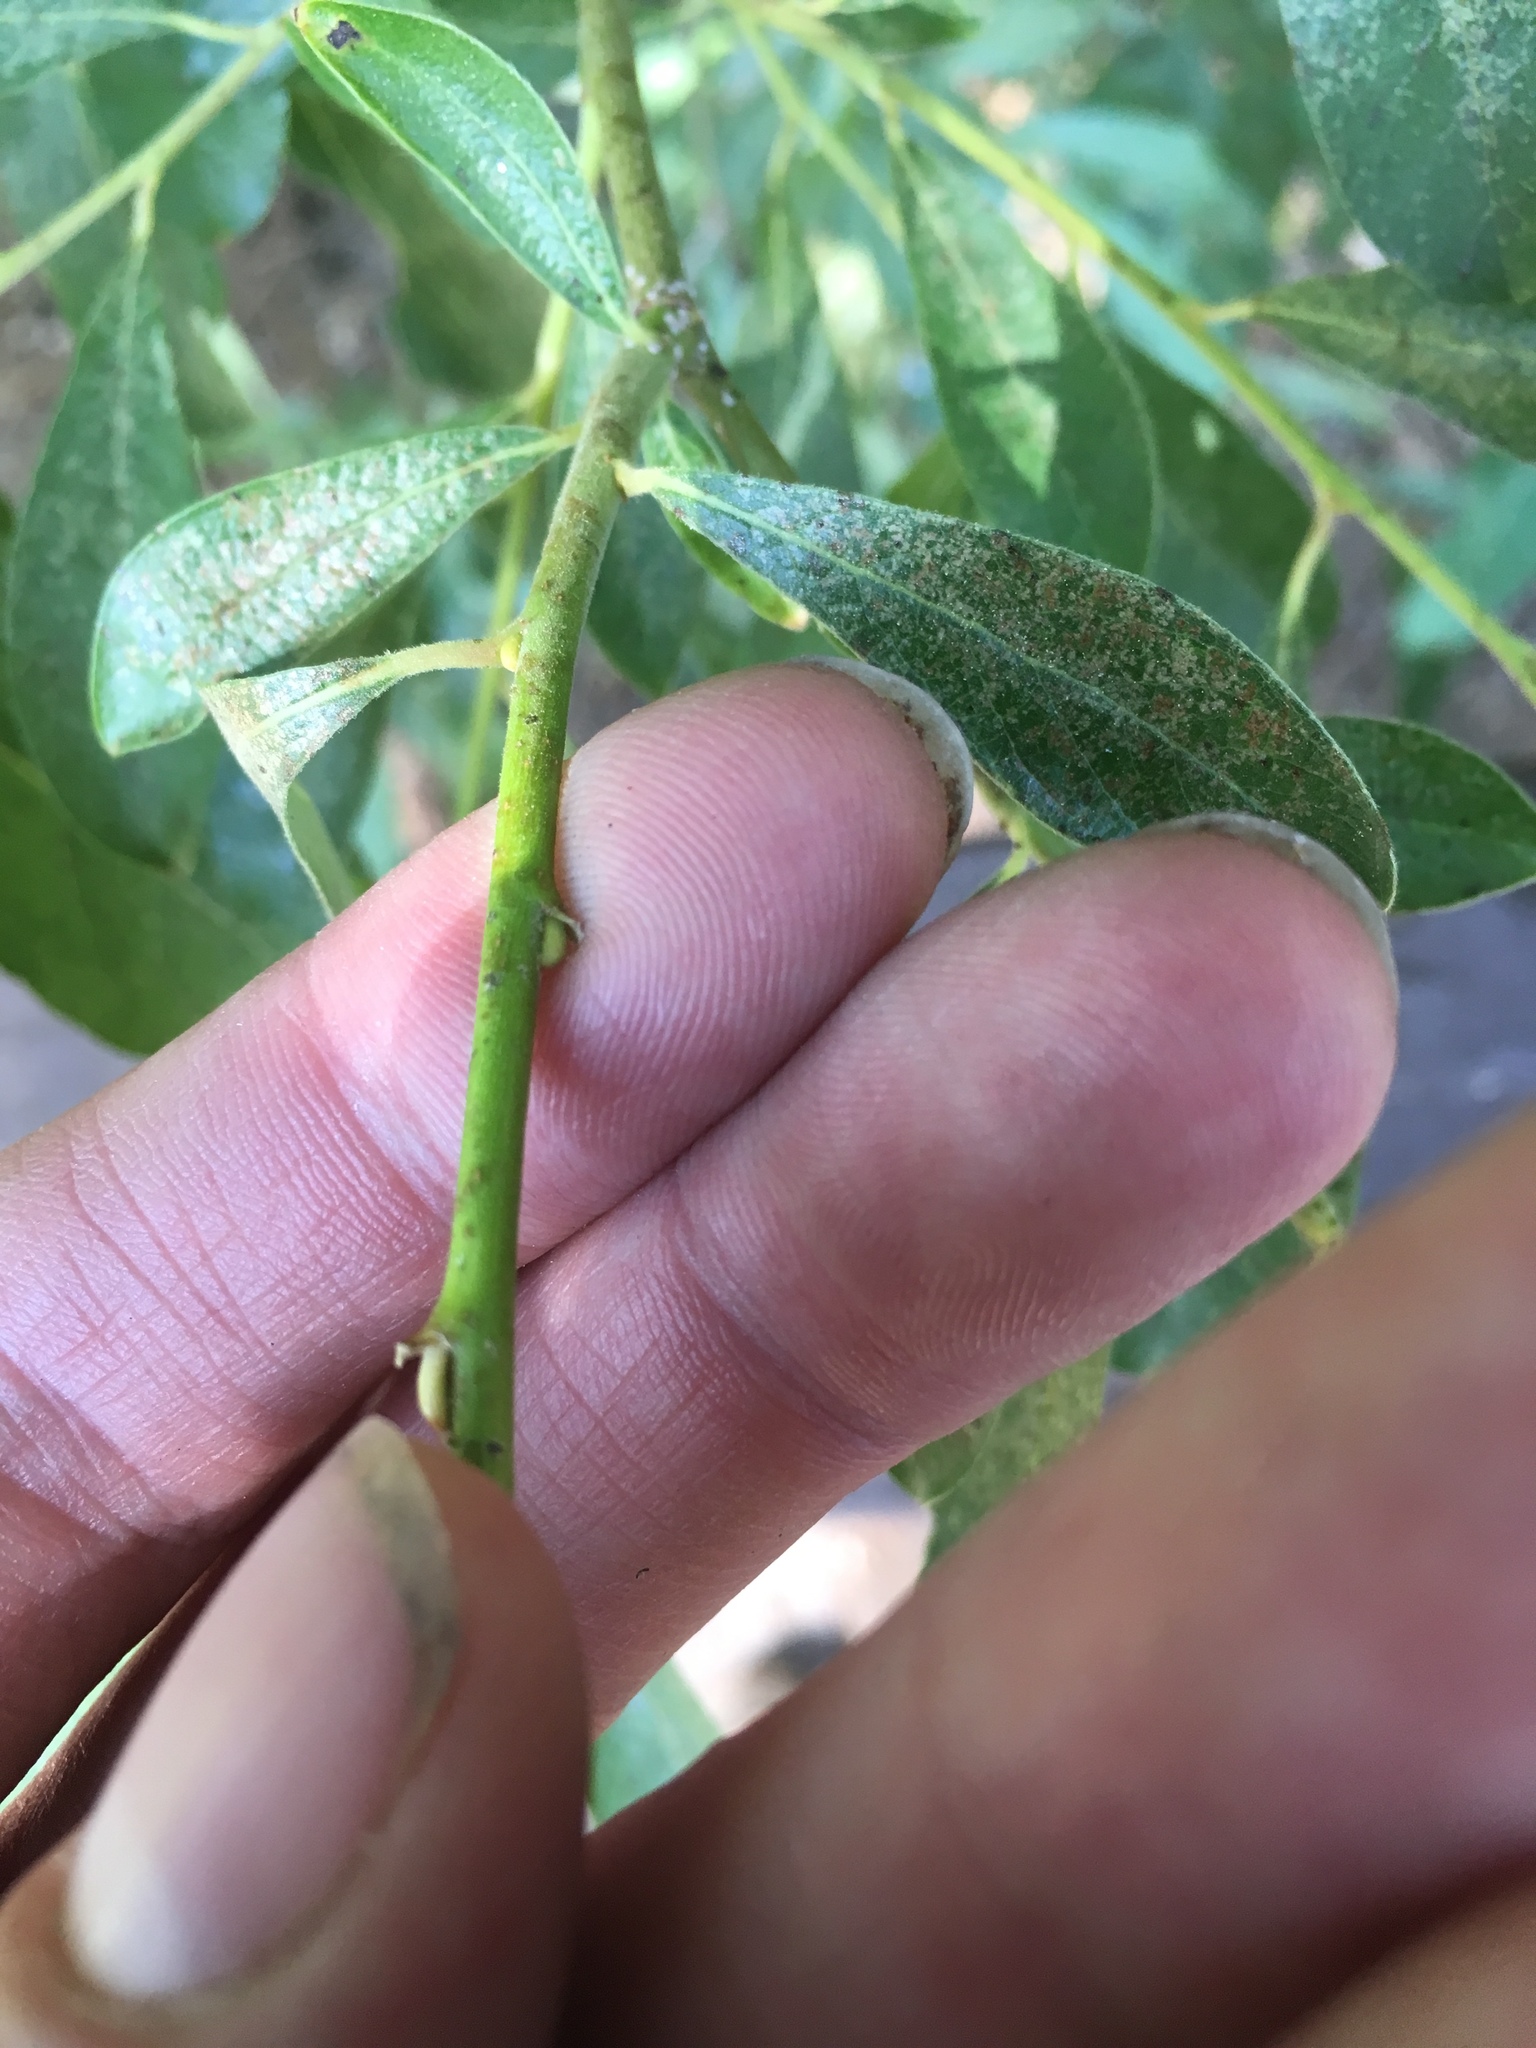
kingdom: Plantae
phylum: Tracheophyta
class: Magnoliopsida
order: Malpighiales
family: Salicaceae
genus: Salix
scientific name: Salix lasiolepis
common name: Arroyo willow
